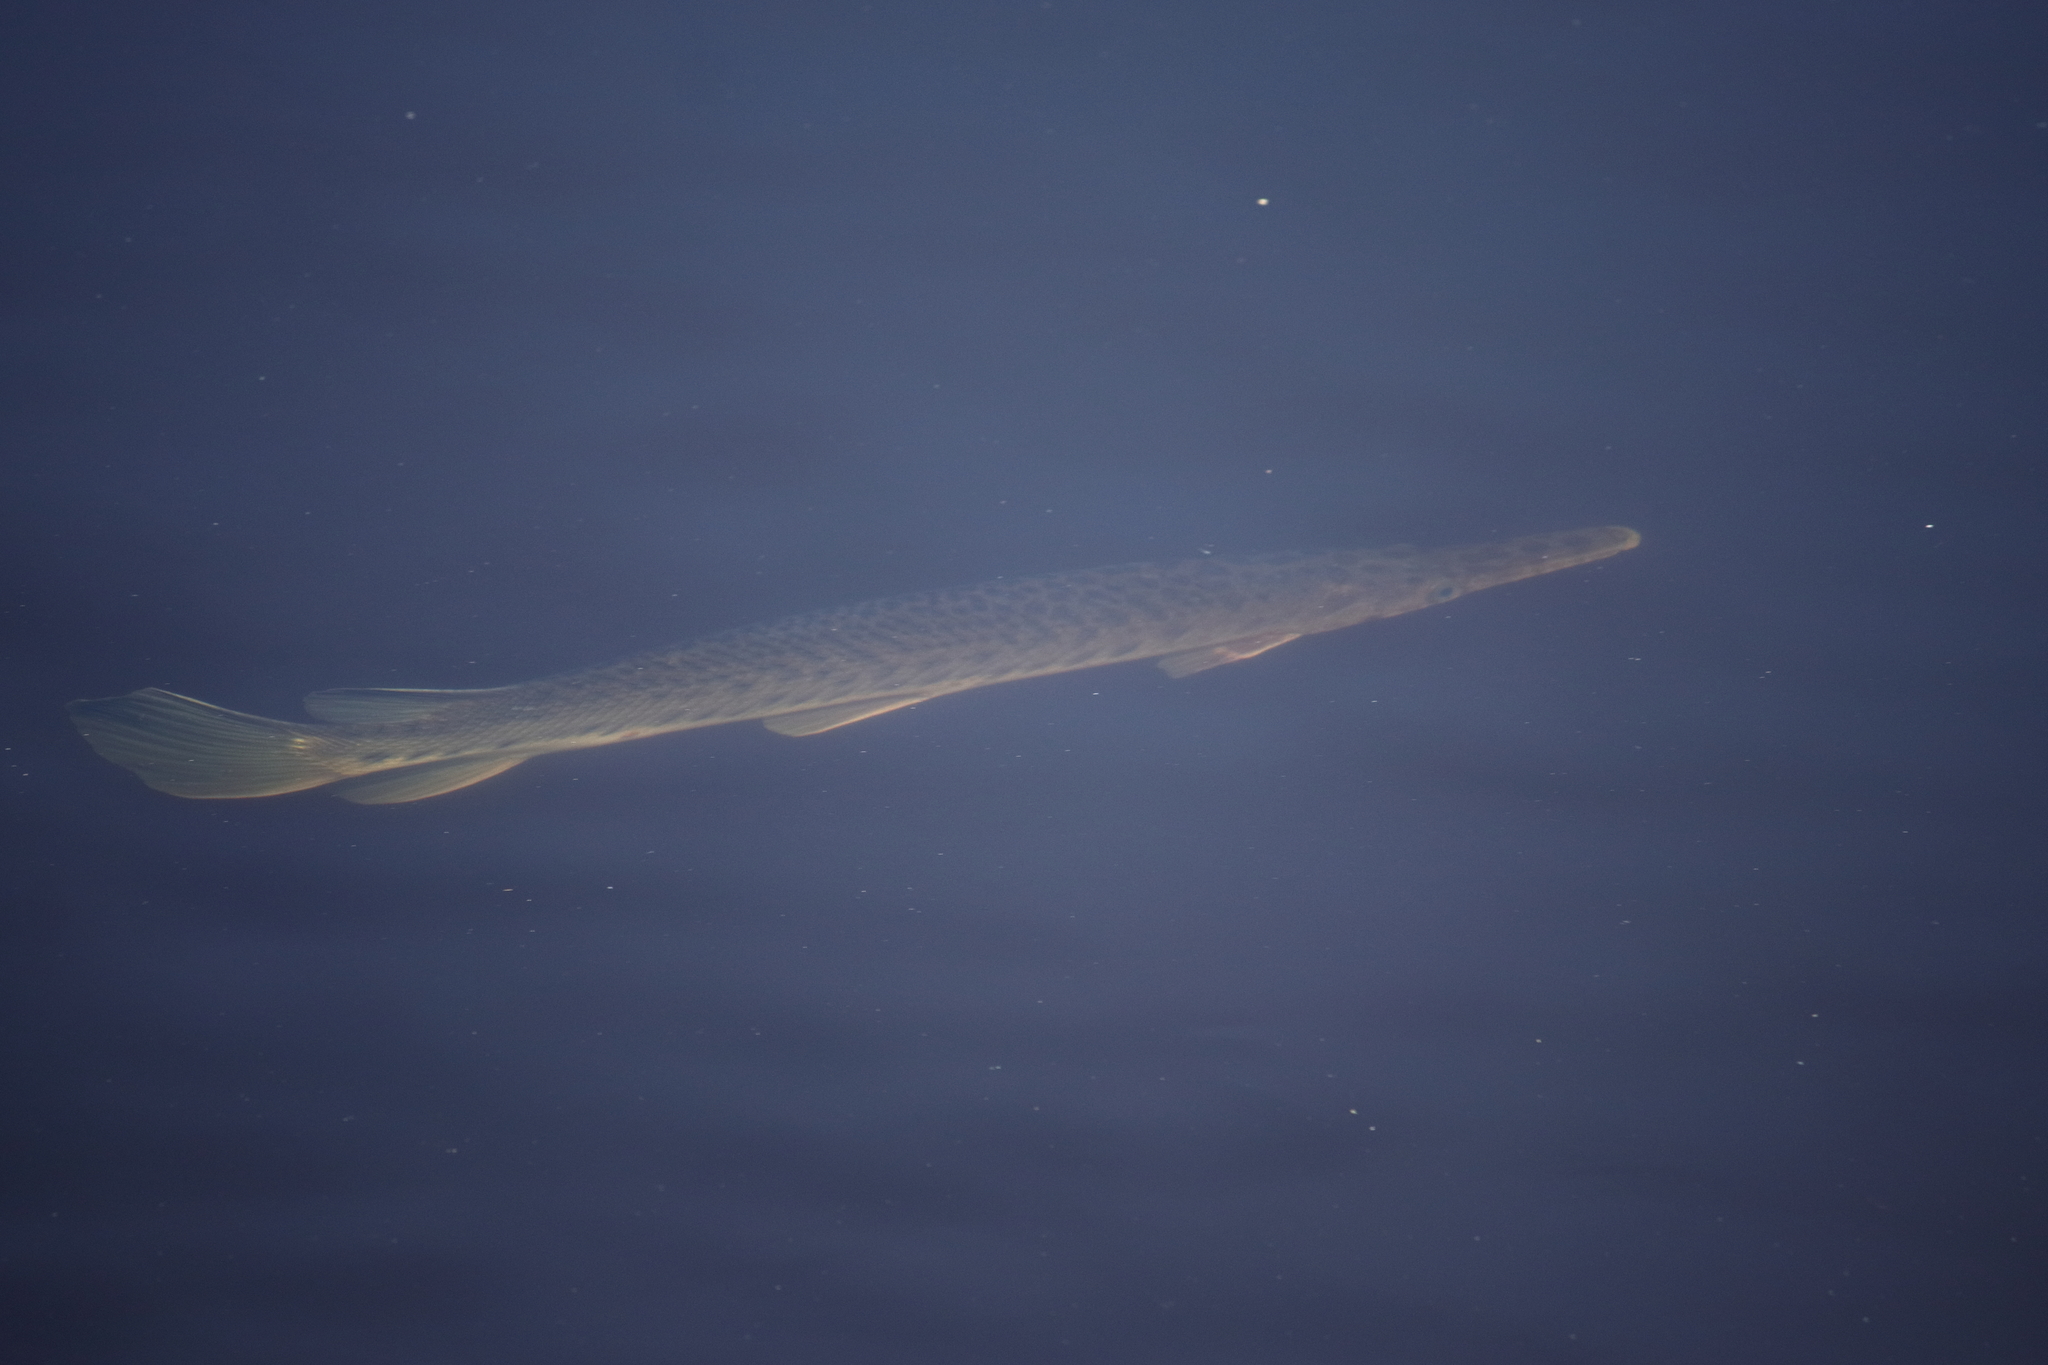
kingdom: Animalia
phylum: Chordata
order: Lepisosteiformes
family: Lepisosteidae
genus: Lepisosteus
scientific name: Lepisosteus platyrhincus
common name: Florida gar
